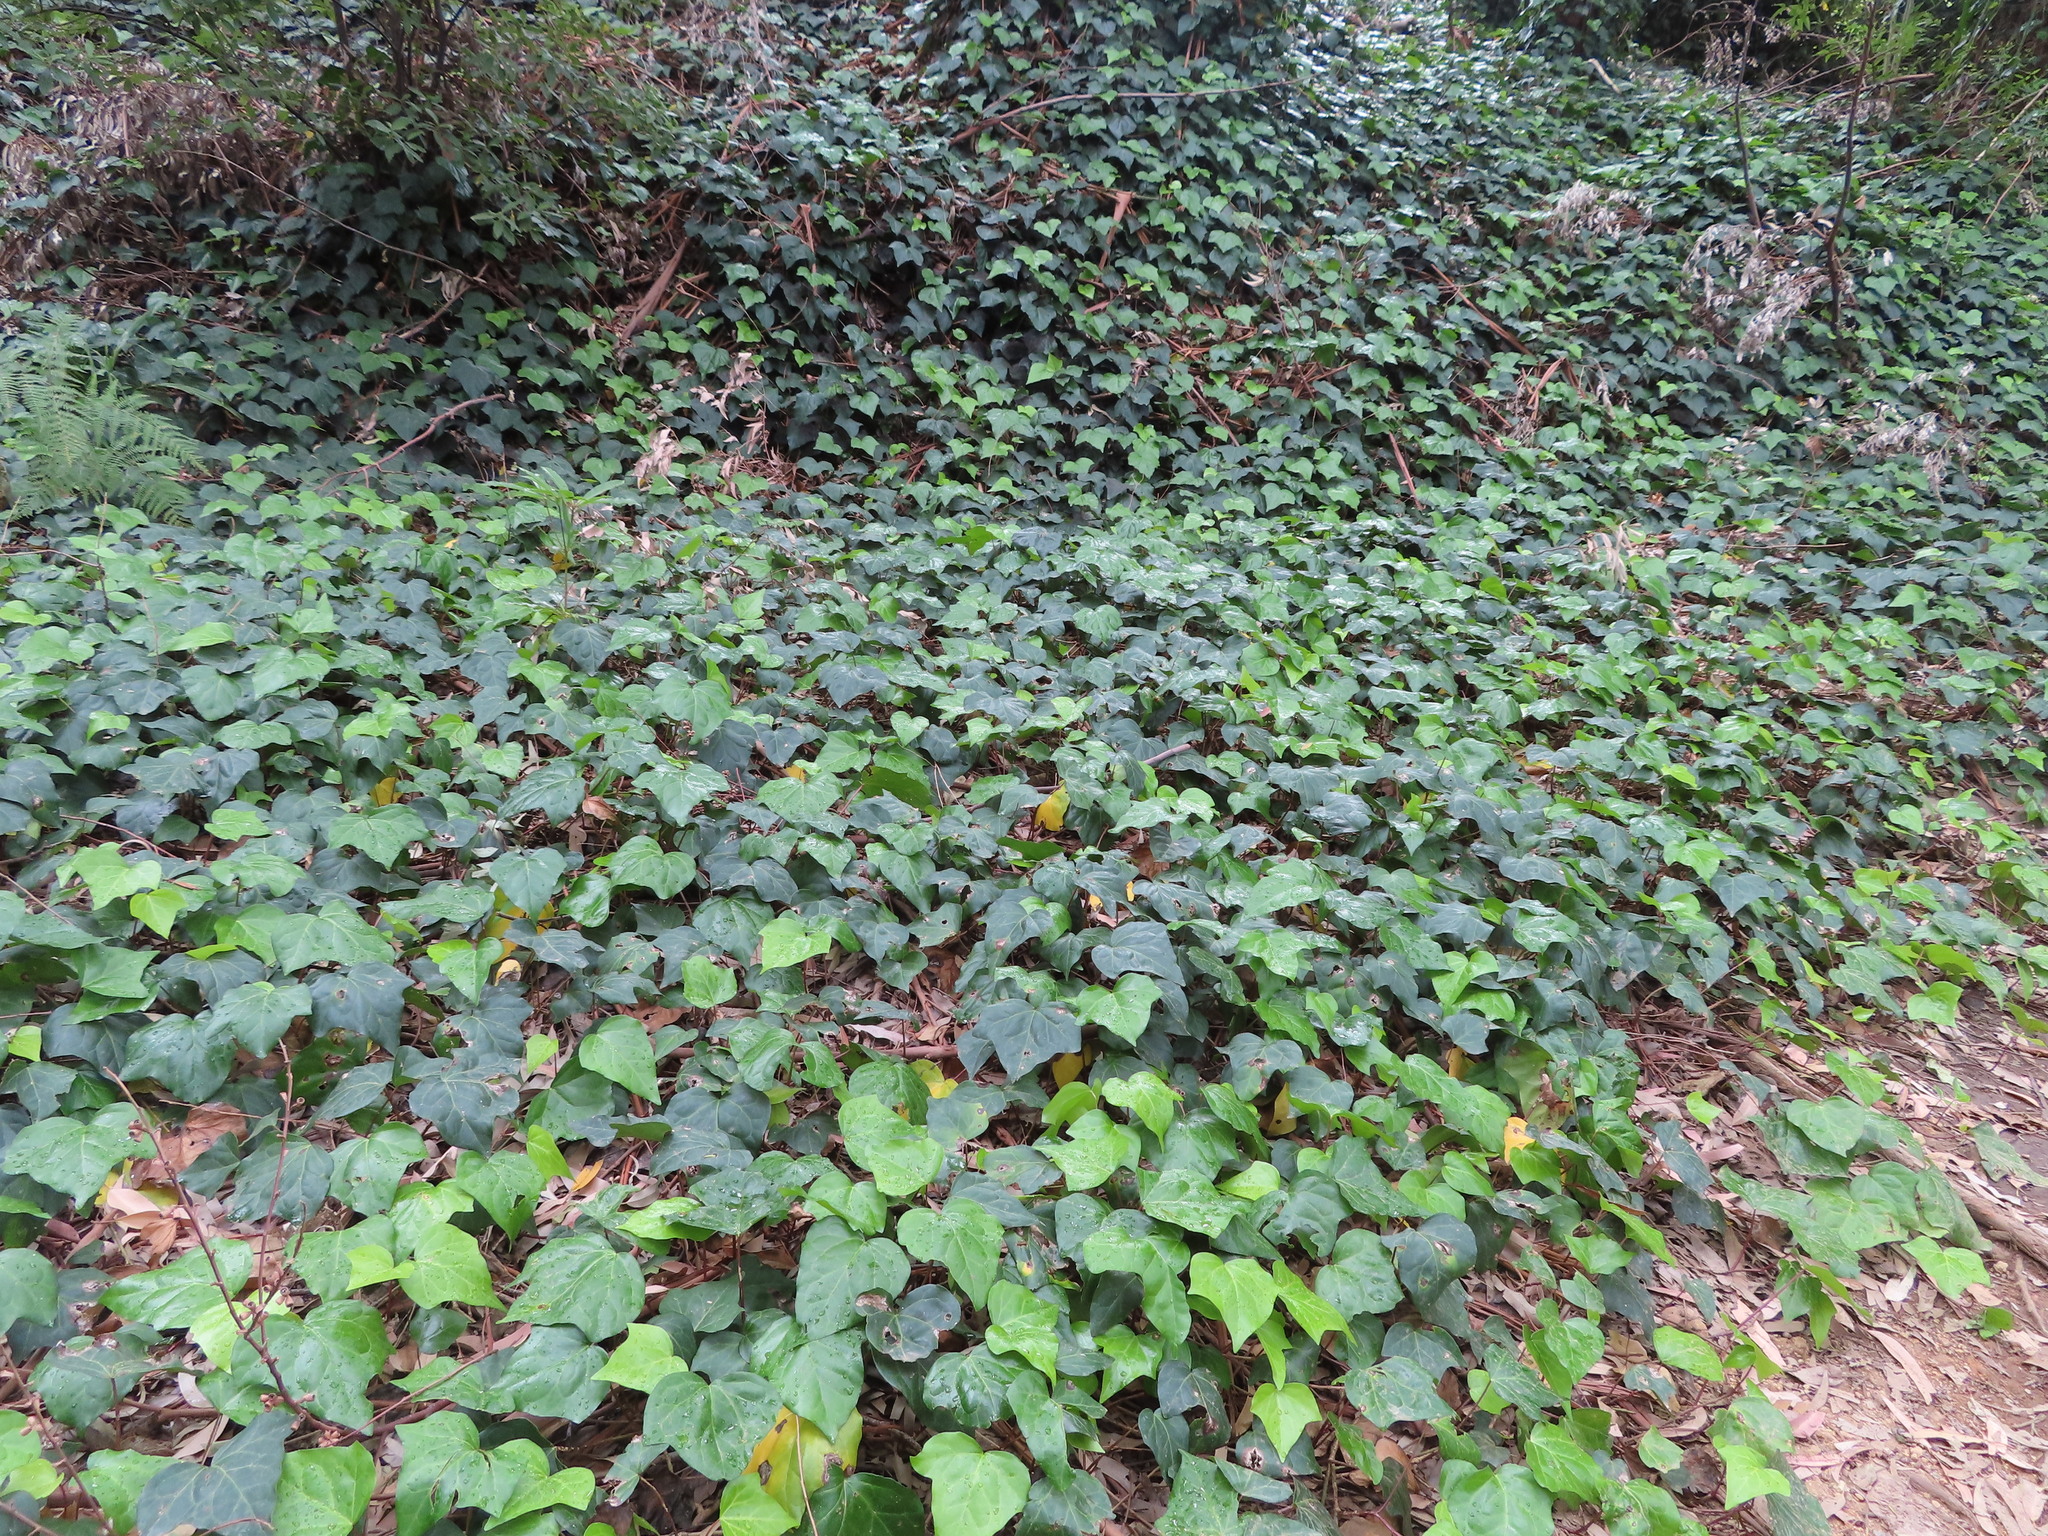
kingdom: Plantae
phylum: Tracheophyta
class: Magnoliopsida
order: Apiales
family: Araliaceae
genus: Hedera
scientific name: Hedera helix
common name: Ivy
